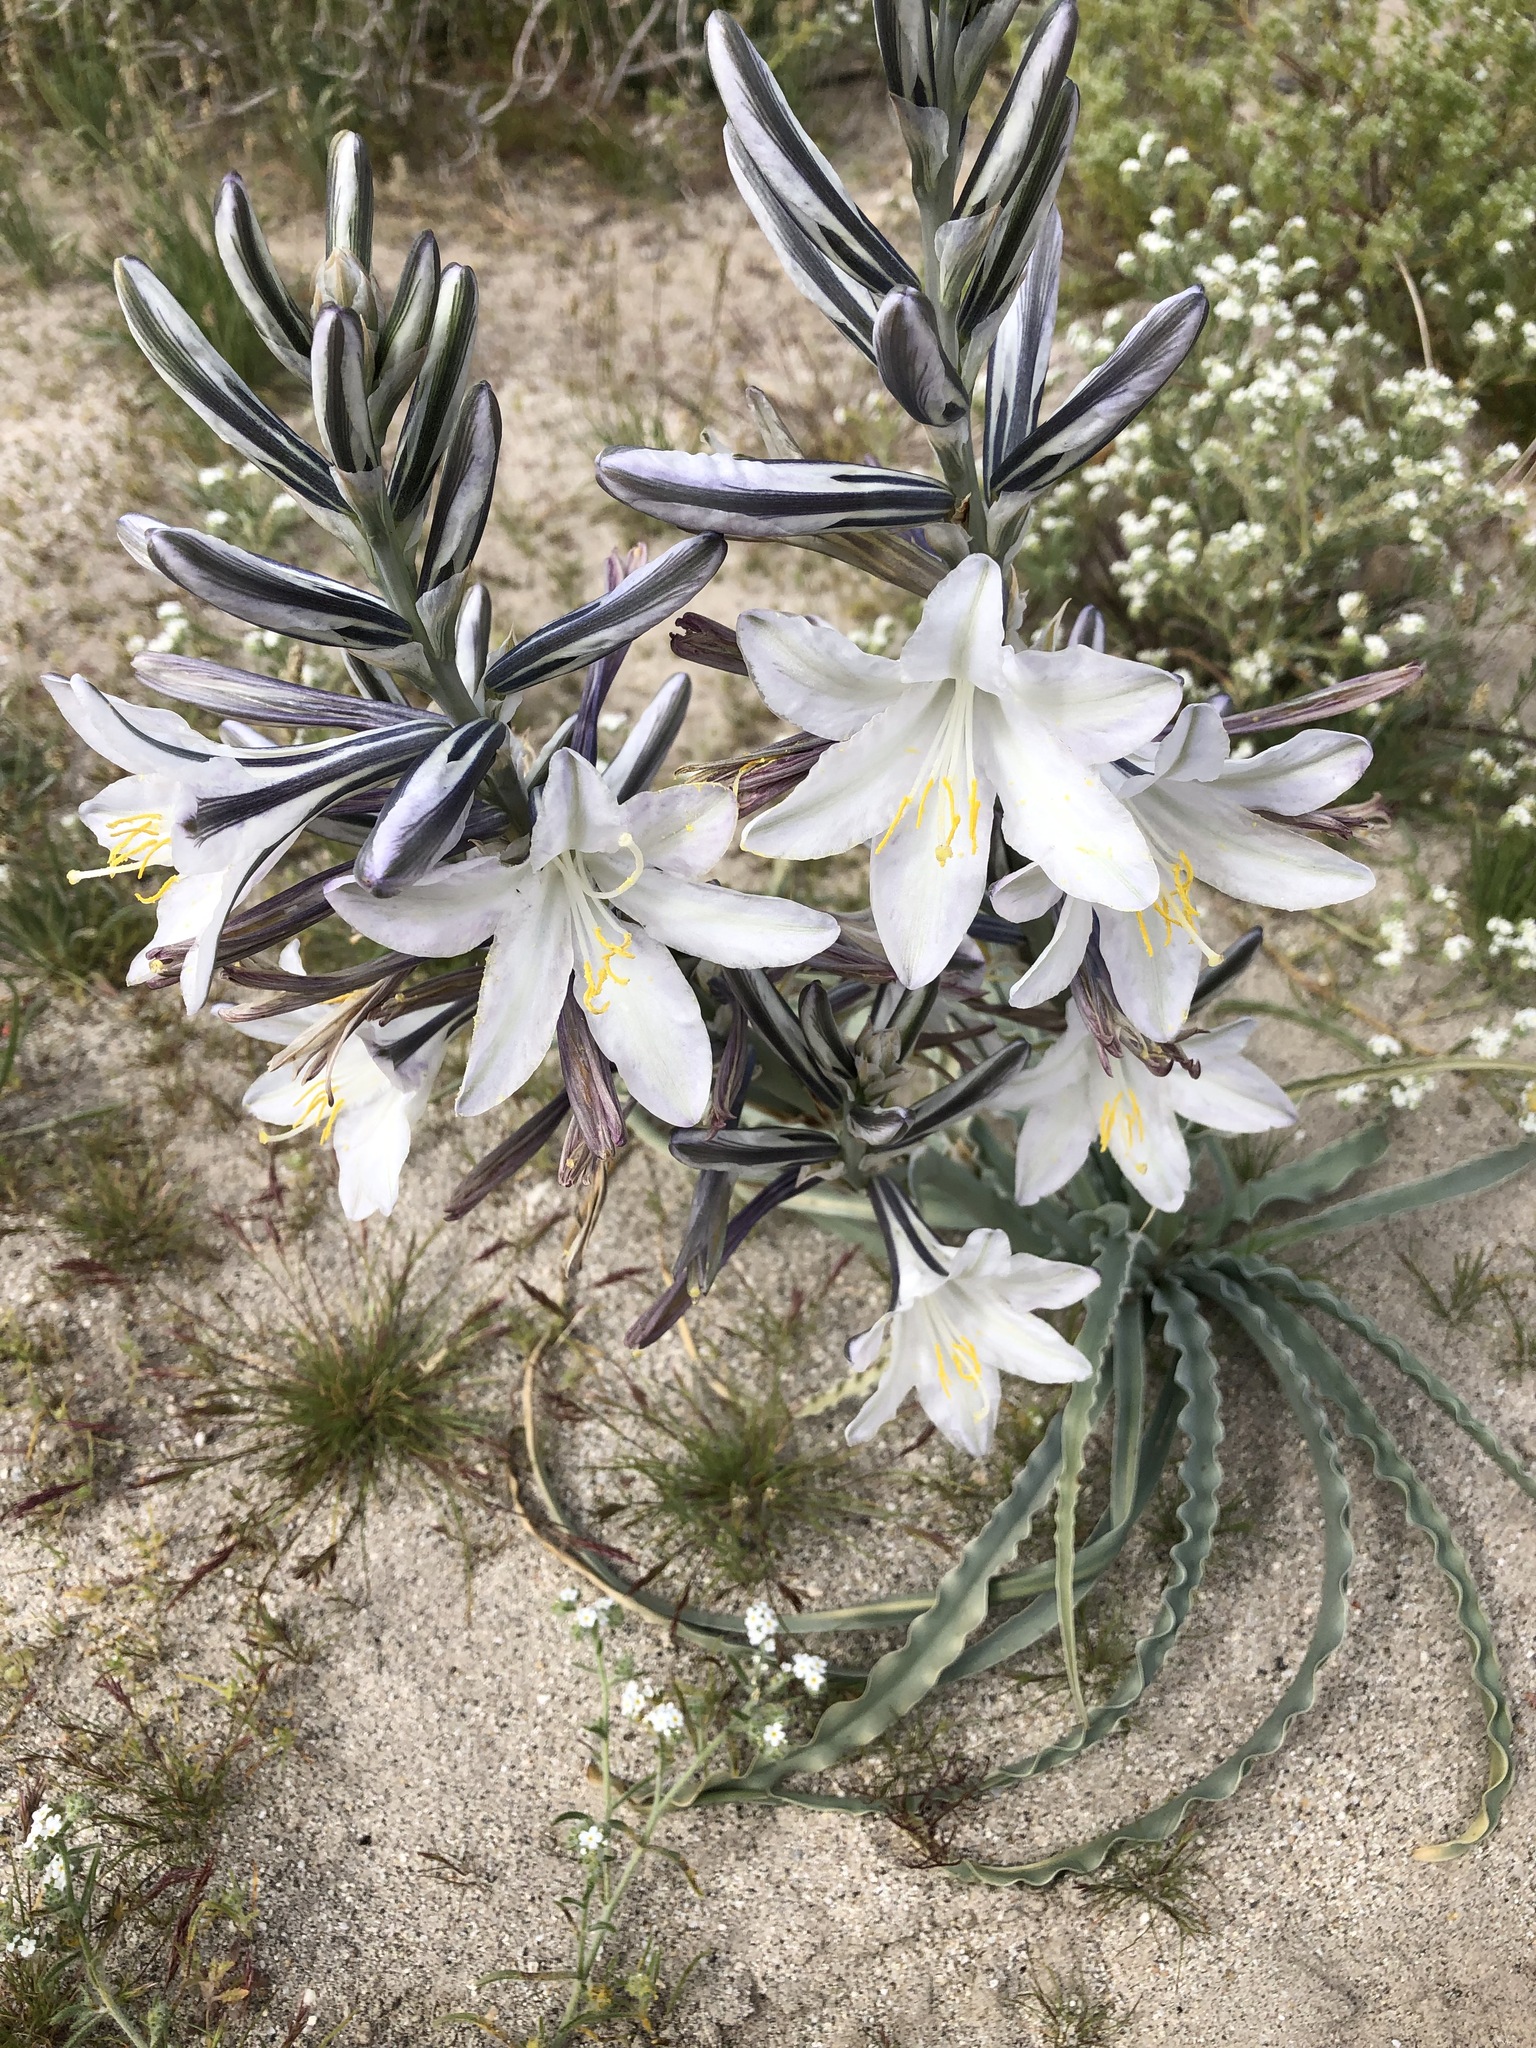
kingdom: Plantae
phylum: Tracheophyta
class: Liliopsida
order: Asparagales
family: Asparagaceae
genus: Hesperocallis
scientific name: Hesperocallis undulata
